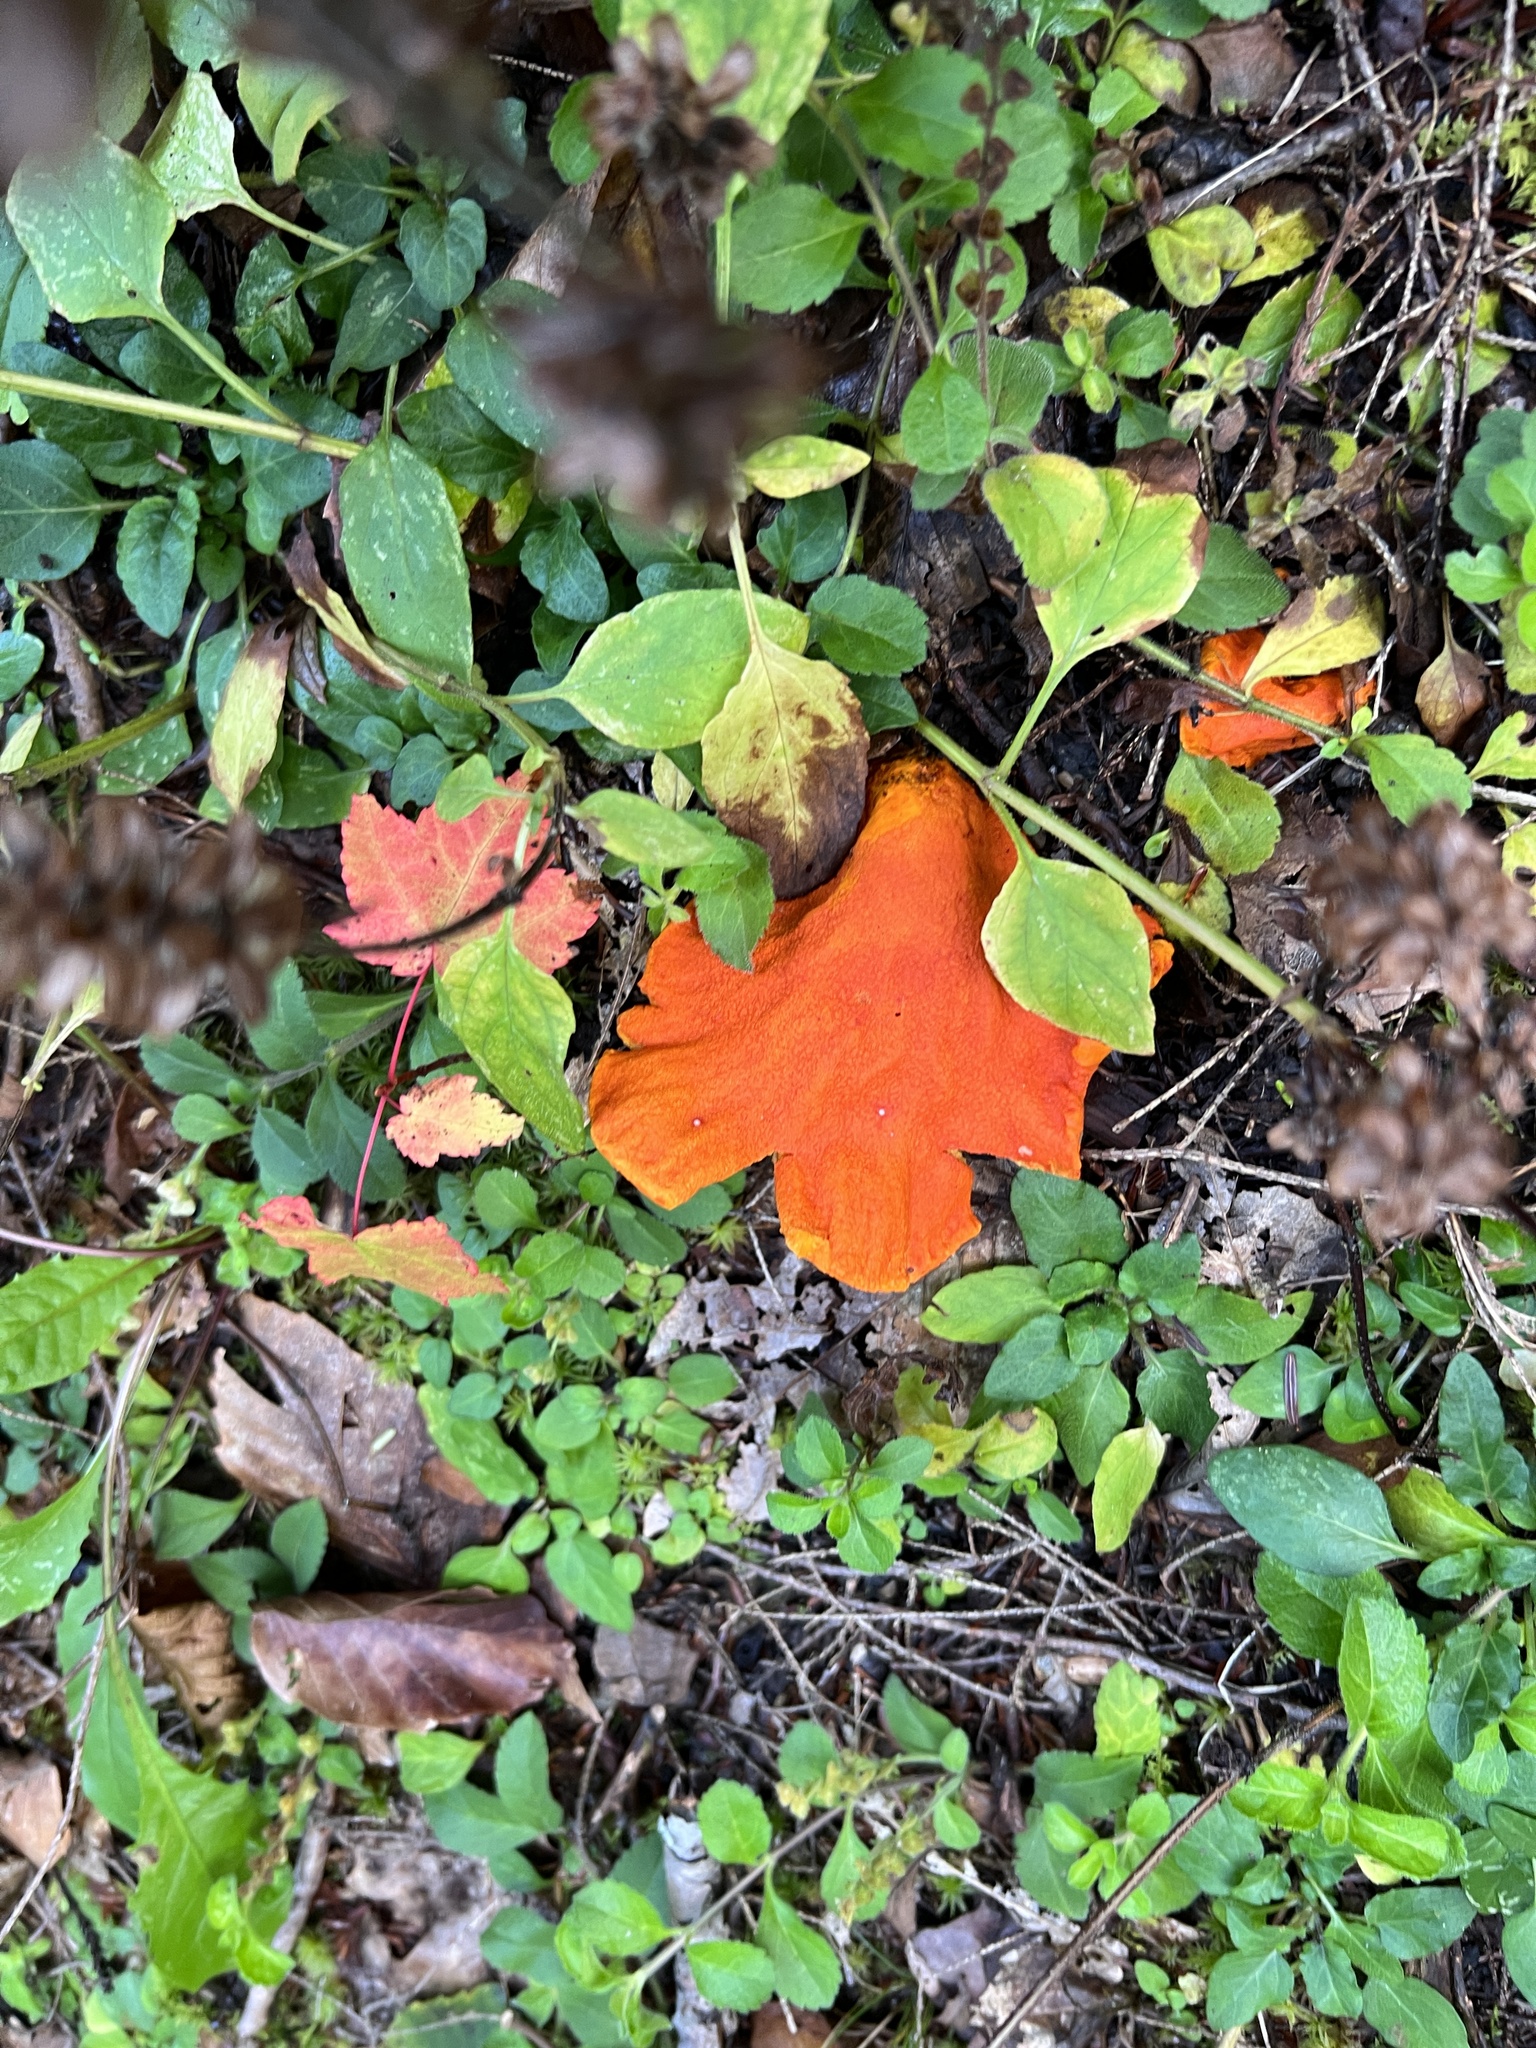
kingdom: Fungi
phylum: Ascomycota
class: Sordariomycetes
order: Hypocreales
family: Hypocreaceae
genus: Hypomyces
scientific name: Hypomyces lactifluorum
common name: Lobster mushroom
